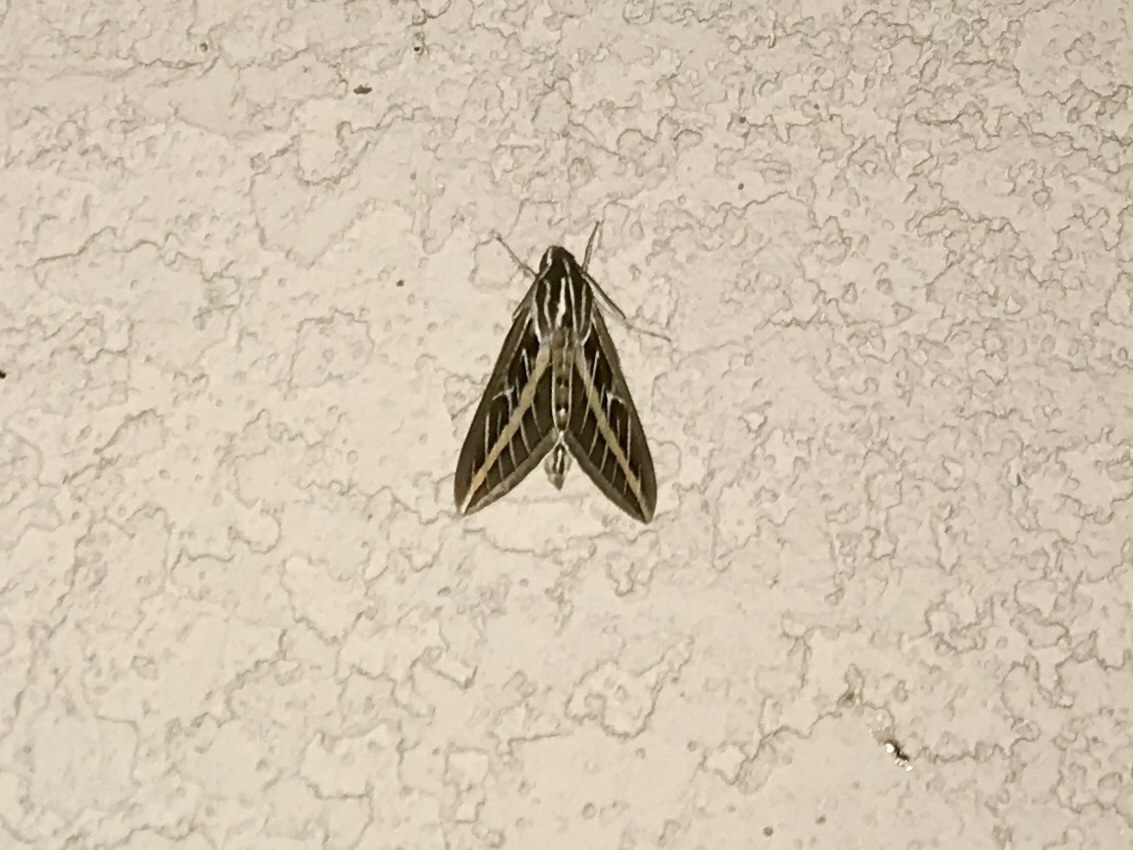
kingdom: Animalia
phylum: Arthropoda
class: Insecta
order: Lepidoptera
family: Sphingidae
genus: Hyles
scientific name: Hyles lineata
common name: White-lined sphinx
